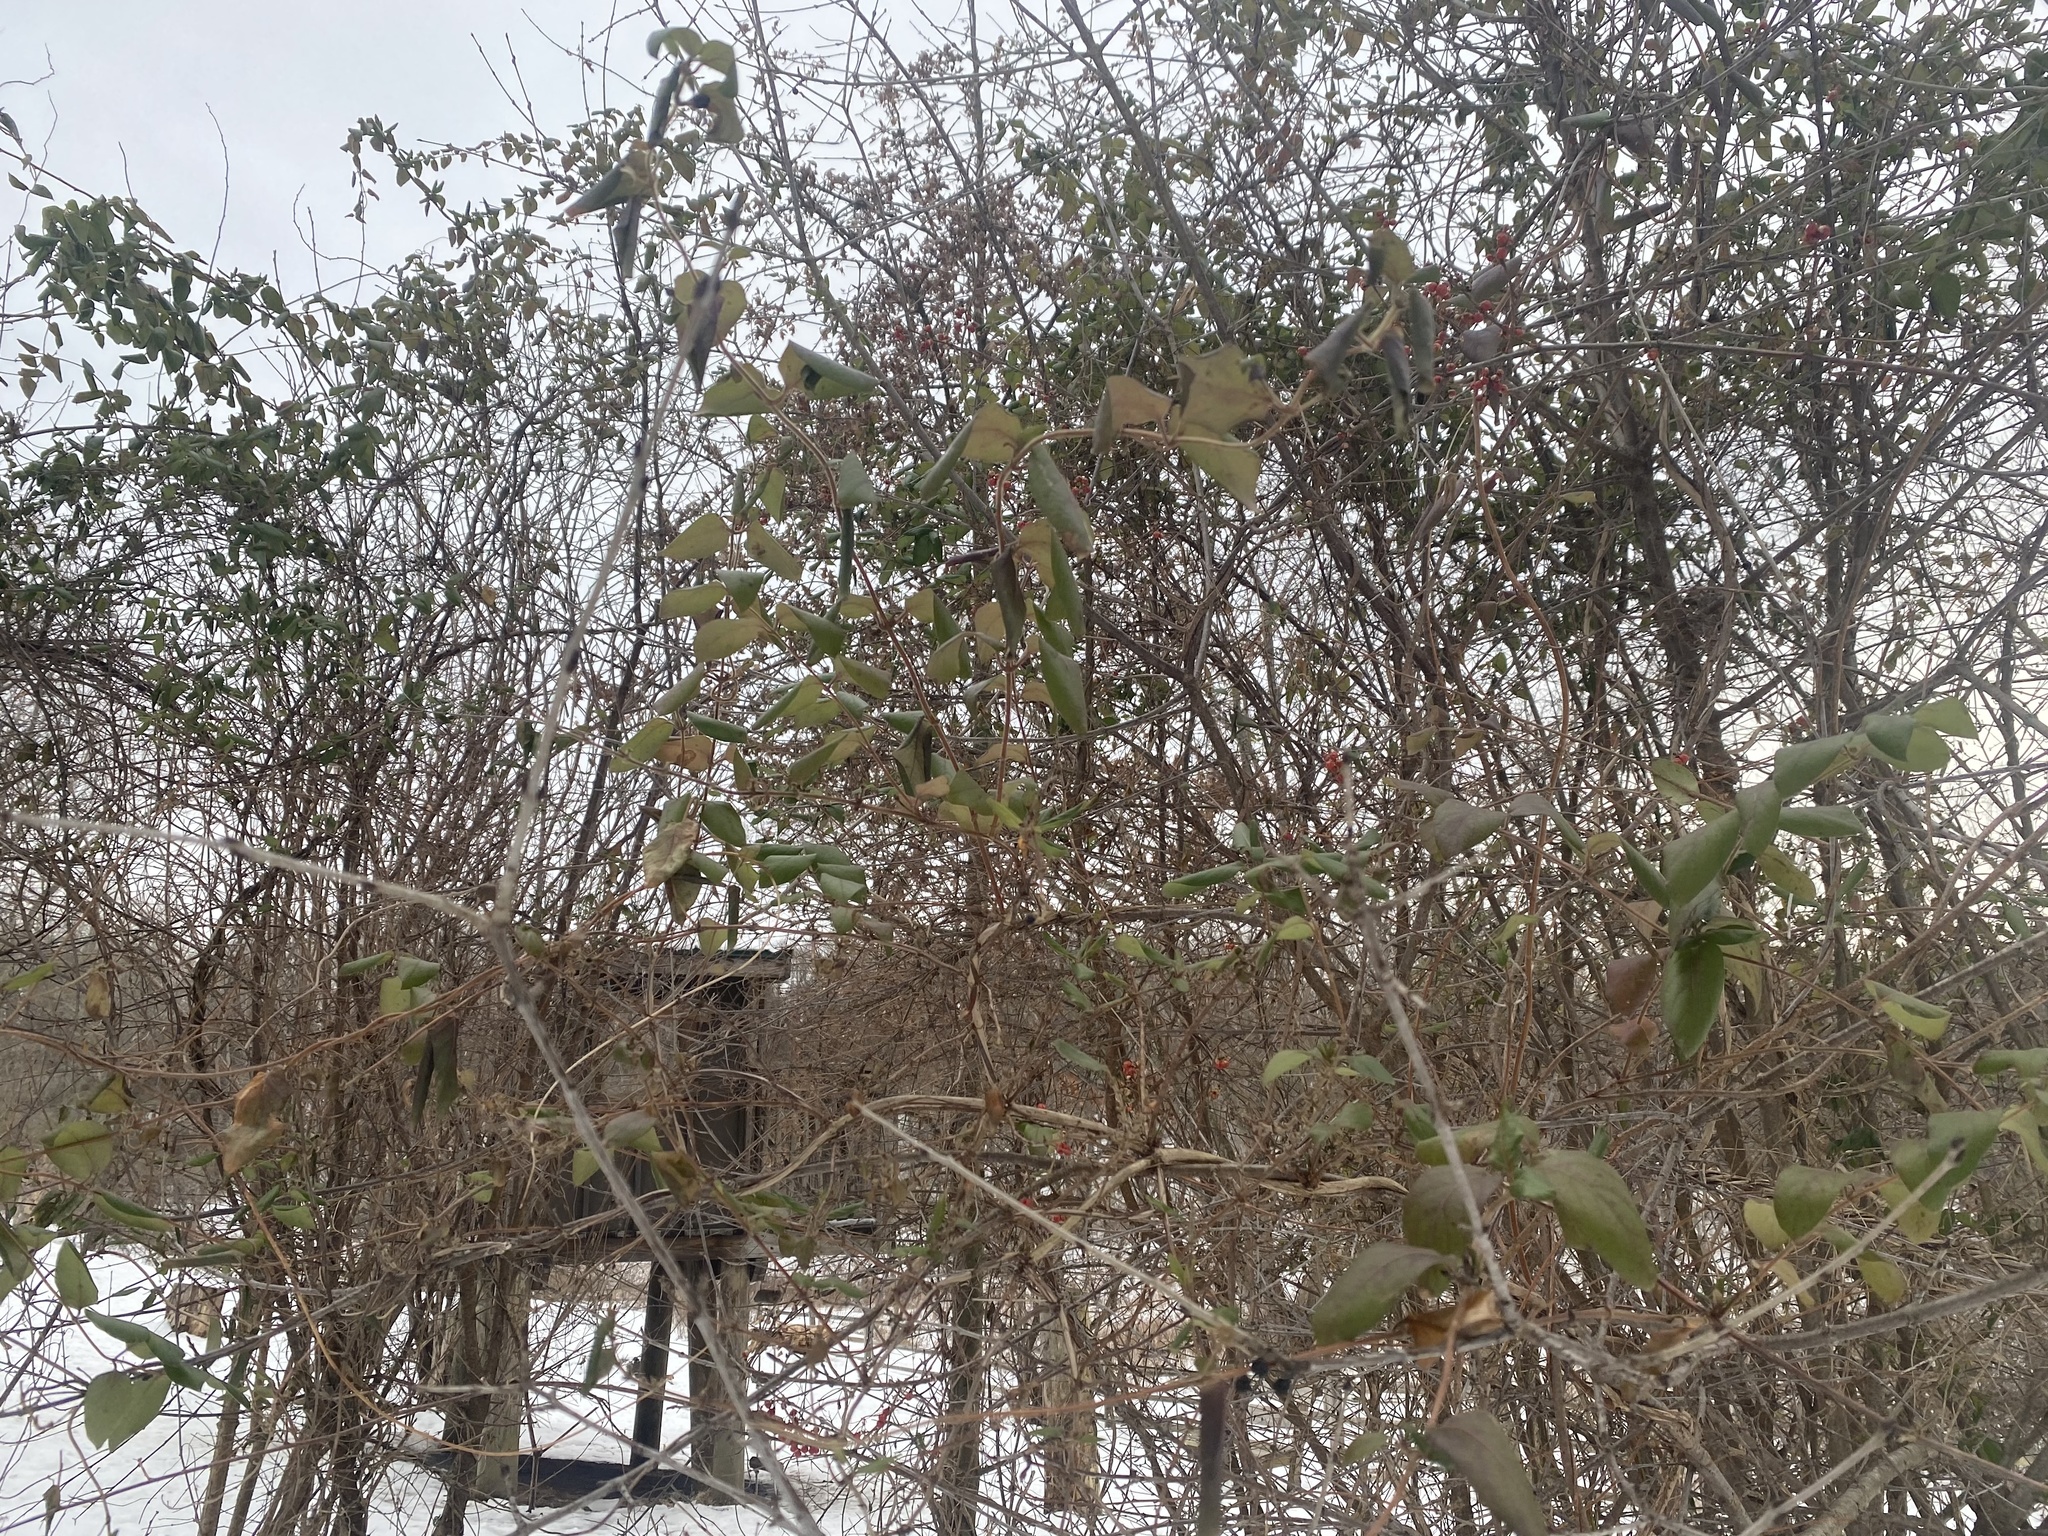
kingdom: Plantae
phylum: Tracheophyta
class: Magnoliopsida
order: Dipsacales
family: Caprifoliaceae
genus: Lonicera
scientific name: Lonicera japonica
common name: Japanese honeysuckle
